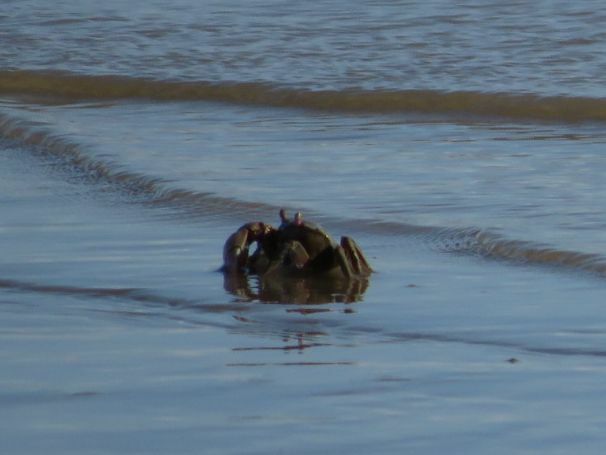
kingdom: Animalia
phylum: Arthropoda
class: Malacostraca
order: Decapoda
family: Varunidae
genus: Neohelice
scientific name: Neohelice granulata
